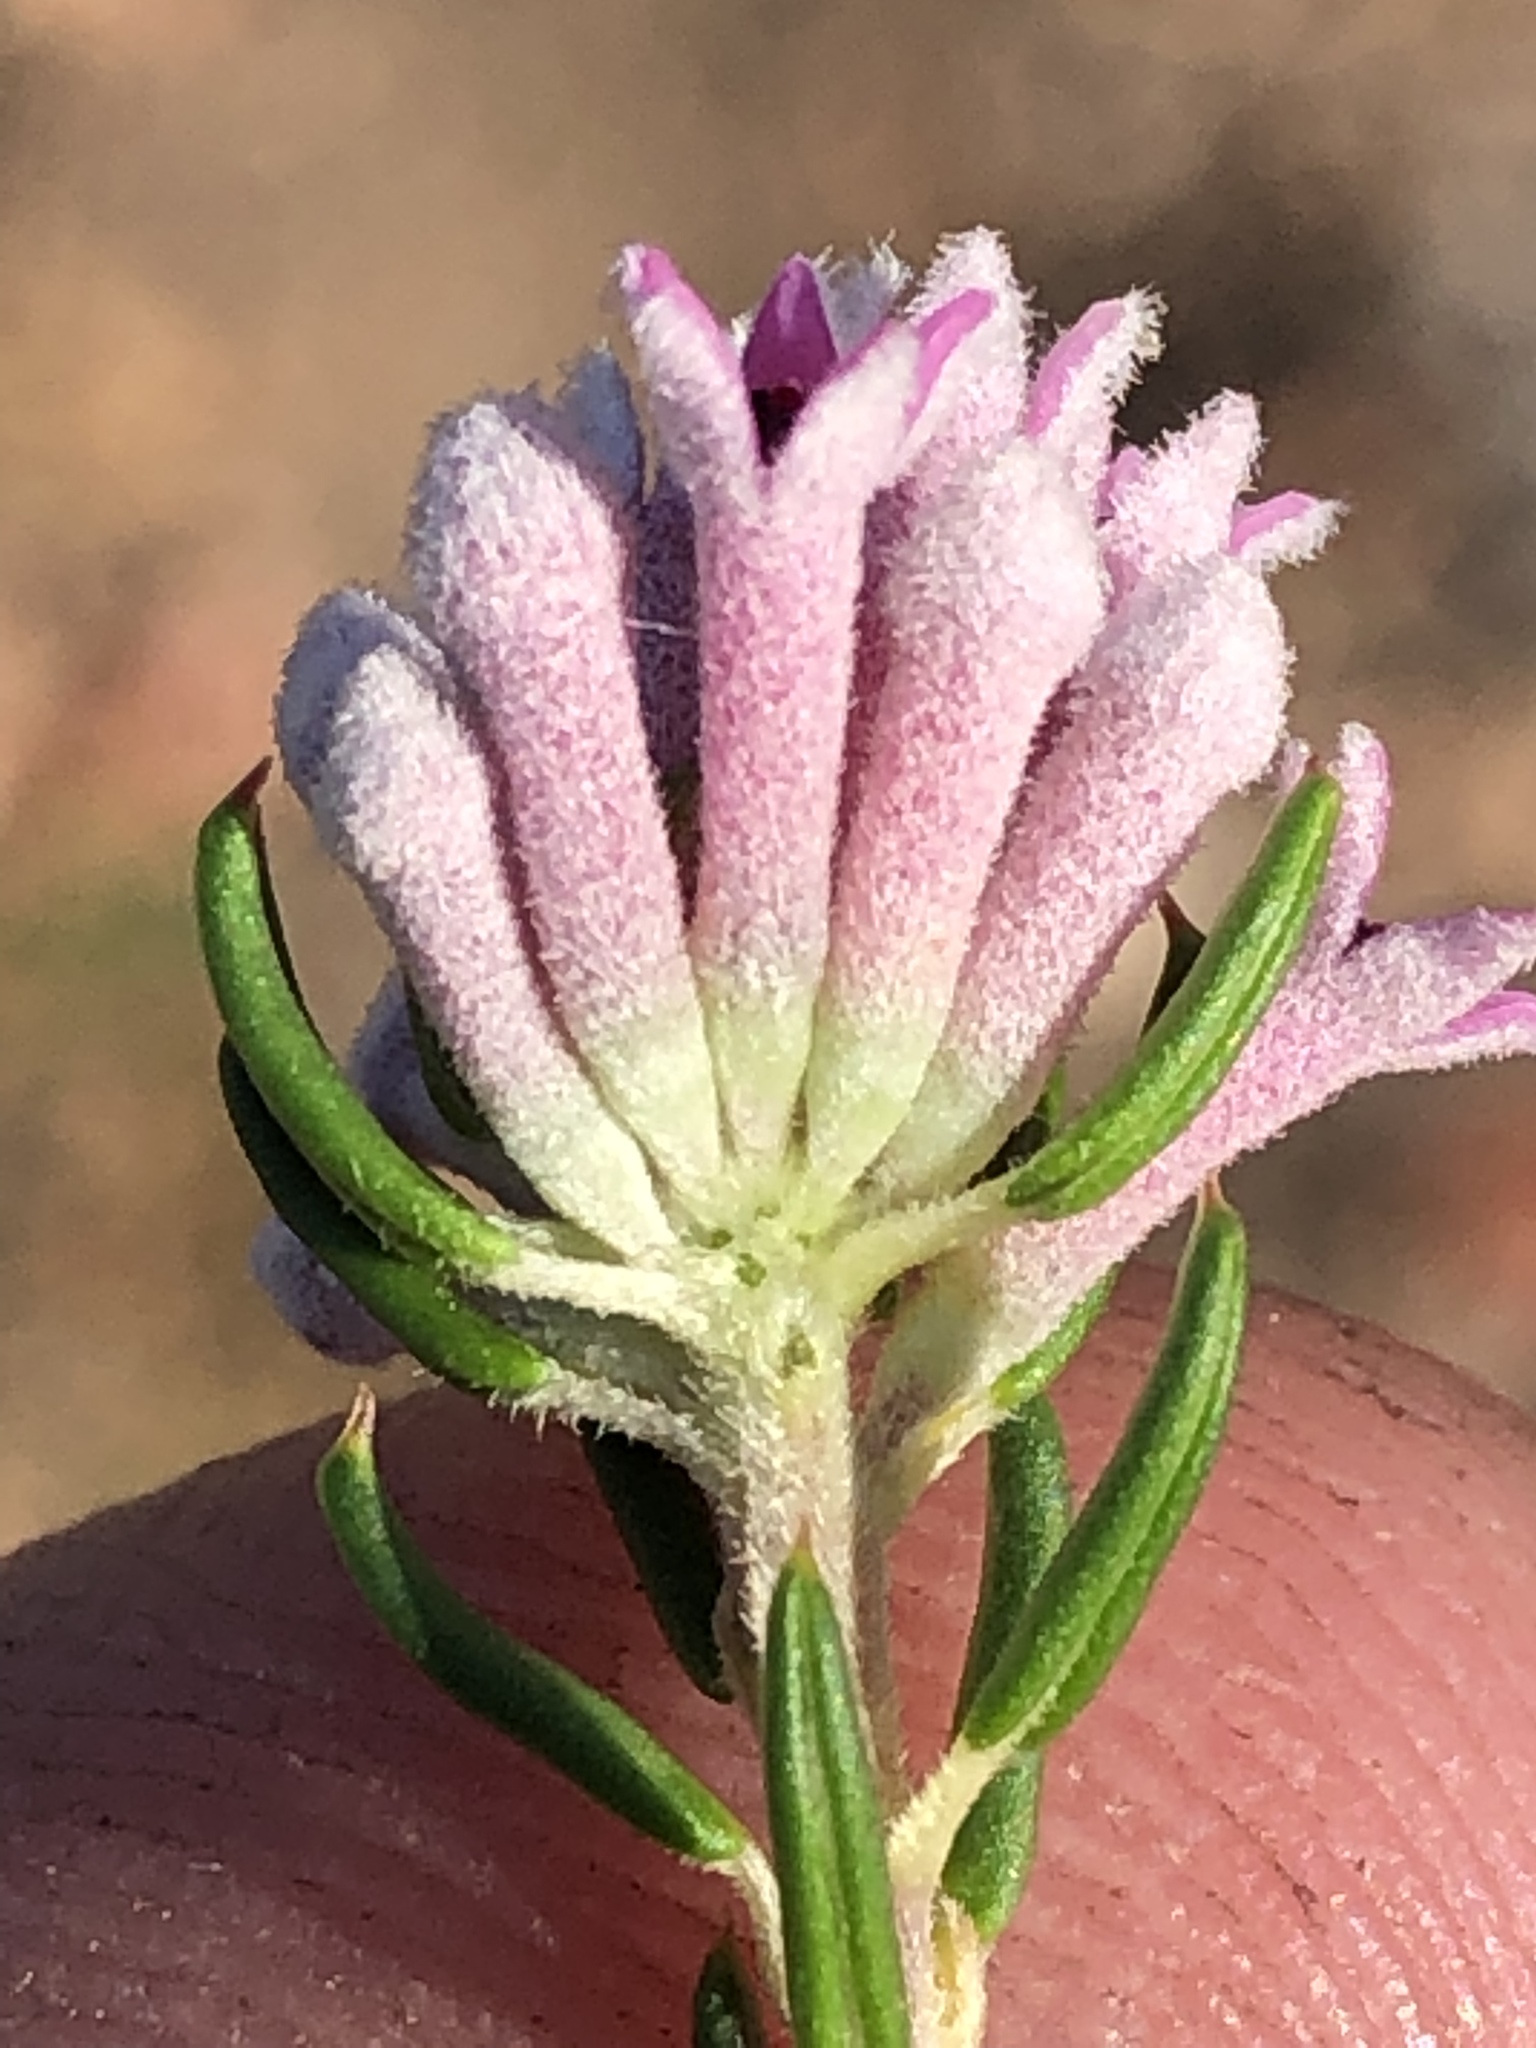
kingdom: Plantae
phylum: Tracheophyta
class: Magnoliopsida
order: Rosales
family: Rhamnaceae
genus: Phylica
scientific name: Phylica lachneaeoides
